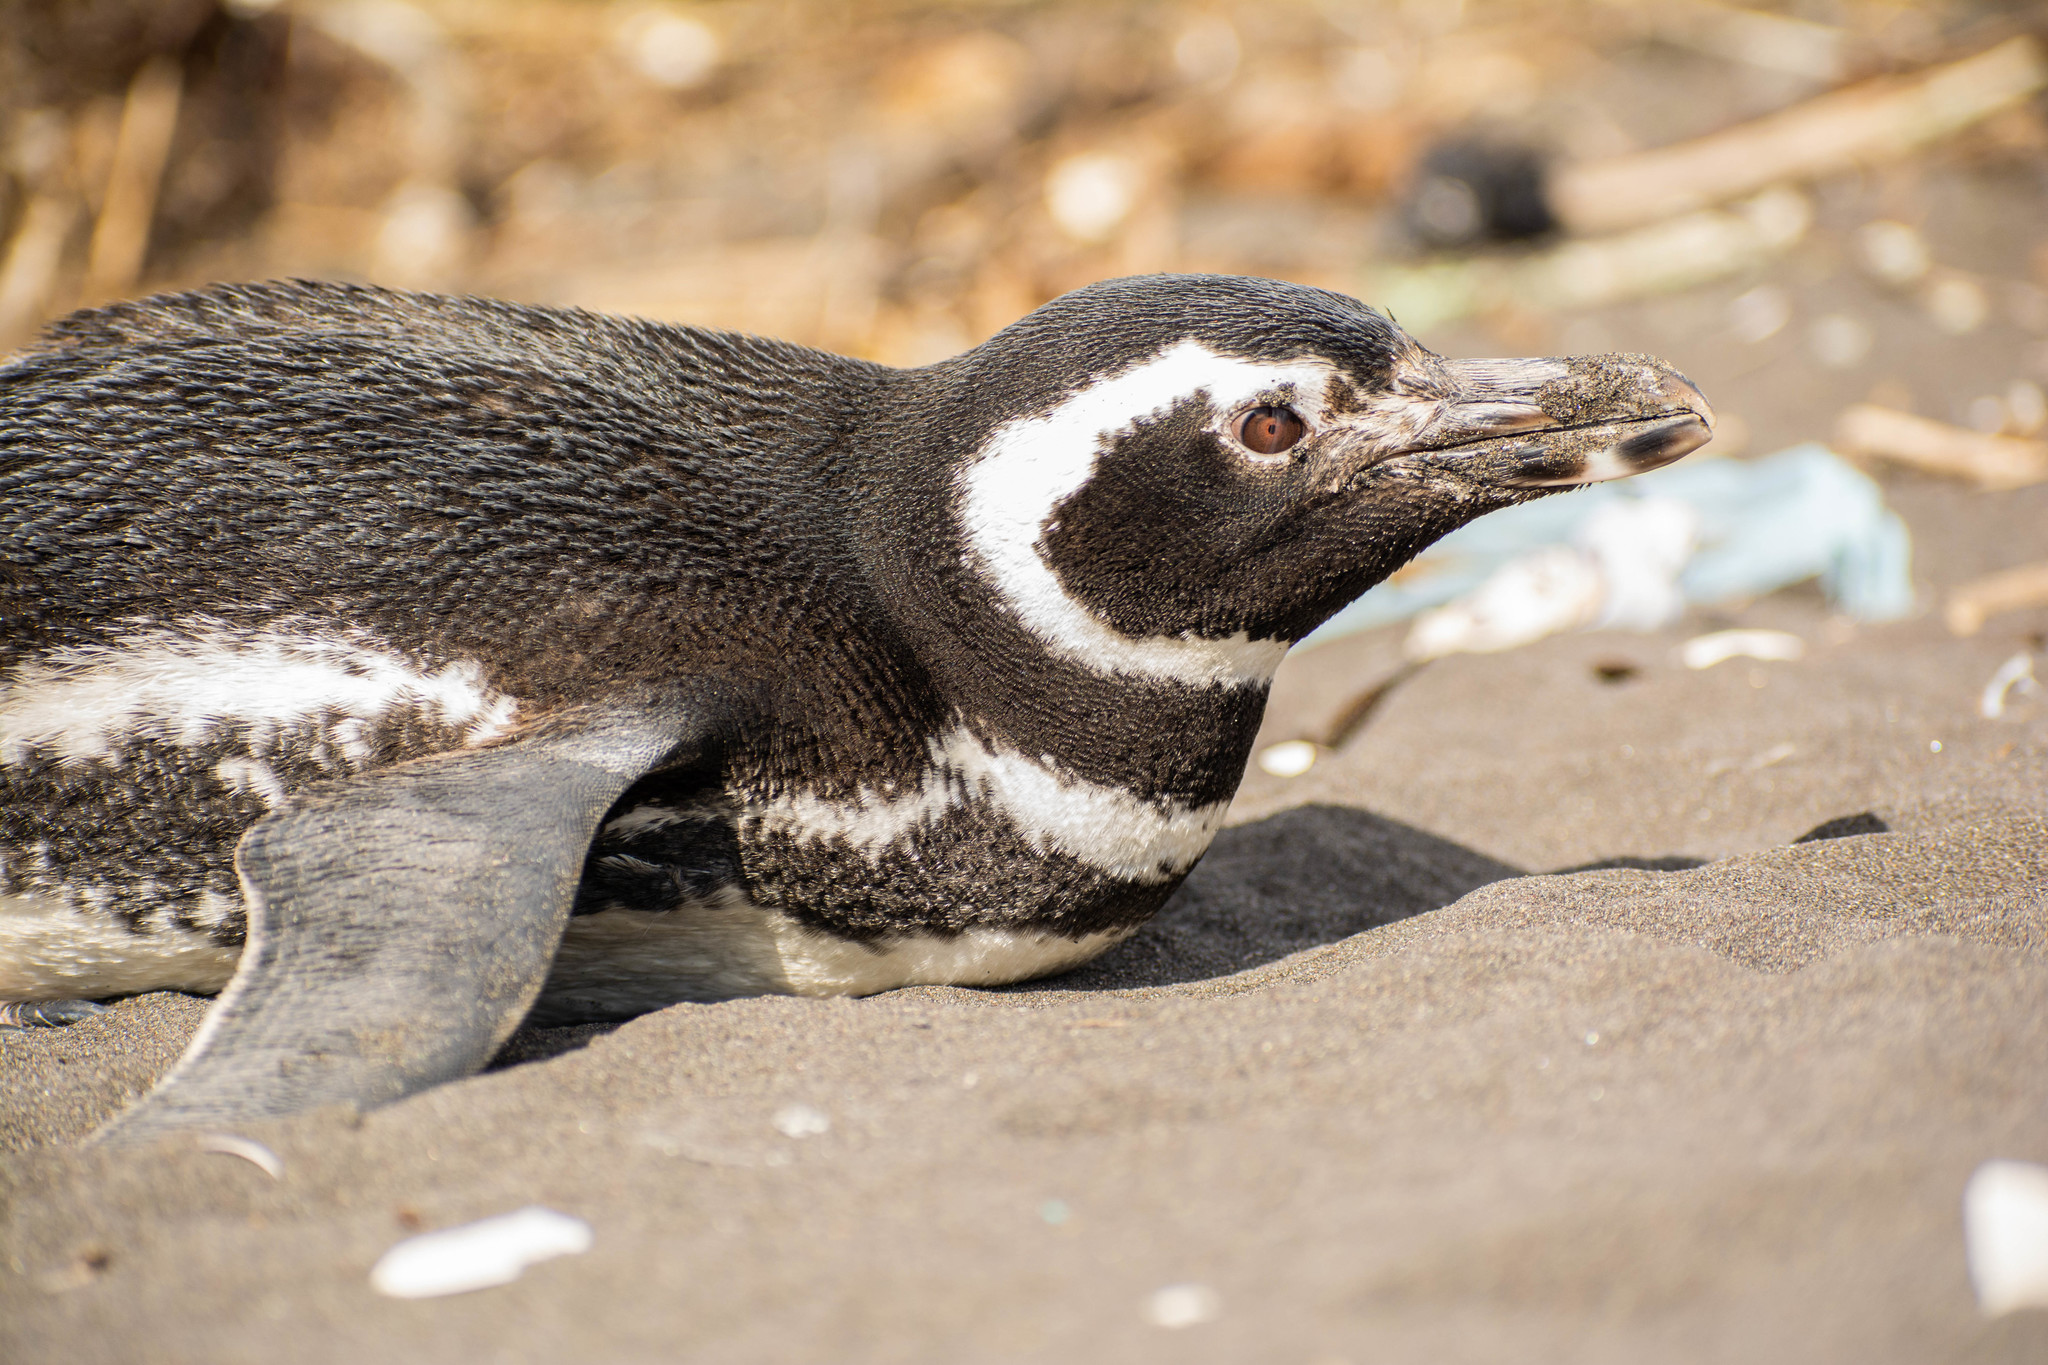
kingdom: Animalia
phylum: Chordata
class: Aves
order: Sphenisciformes
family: Spheniscidae
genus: Spheniscus
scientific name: Spheniscus magellanicus
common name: Magellanic penguin
